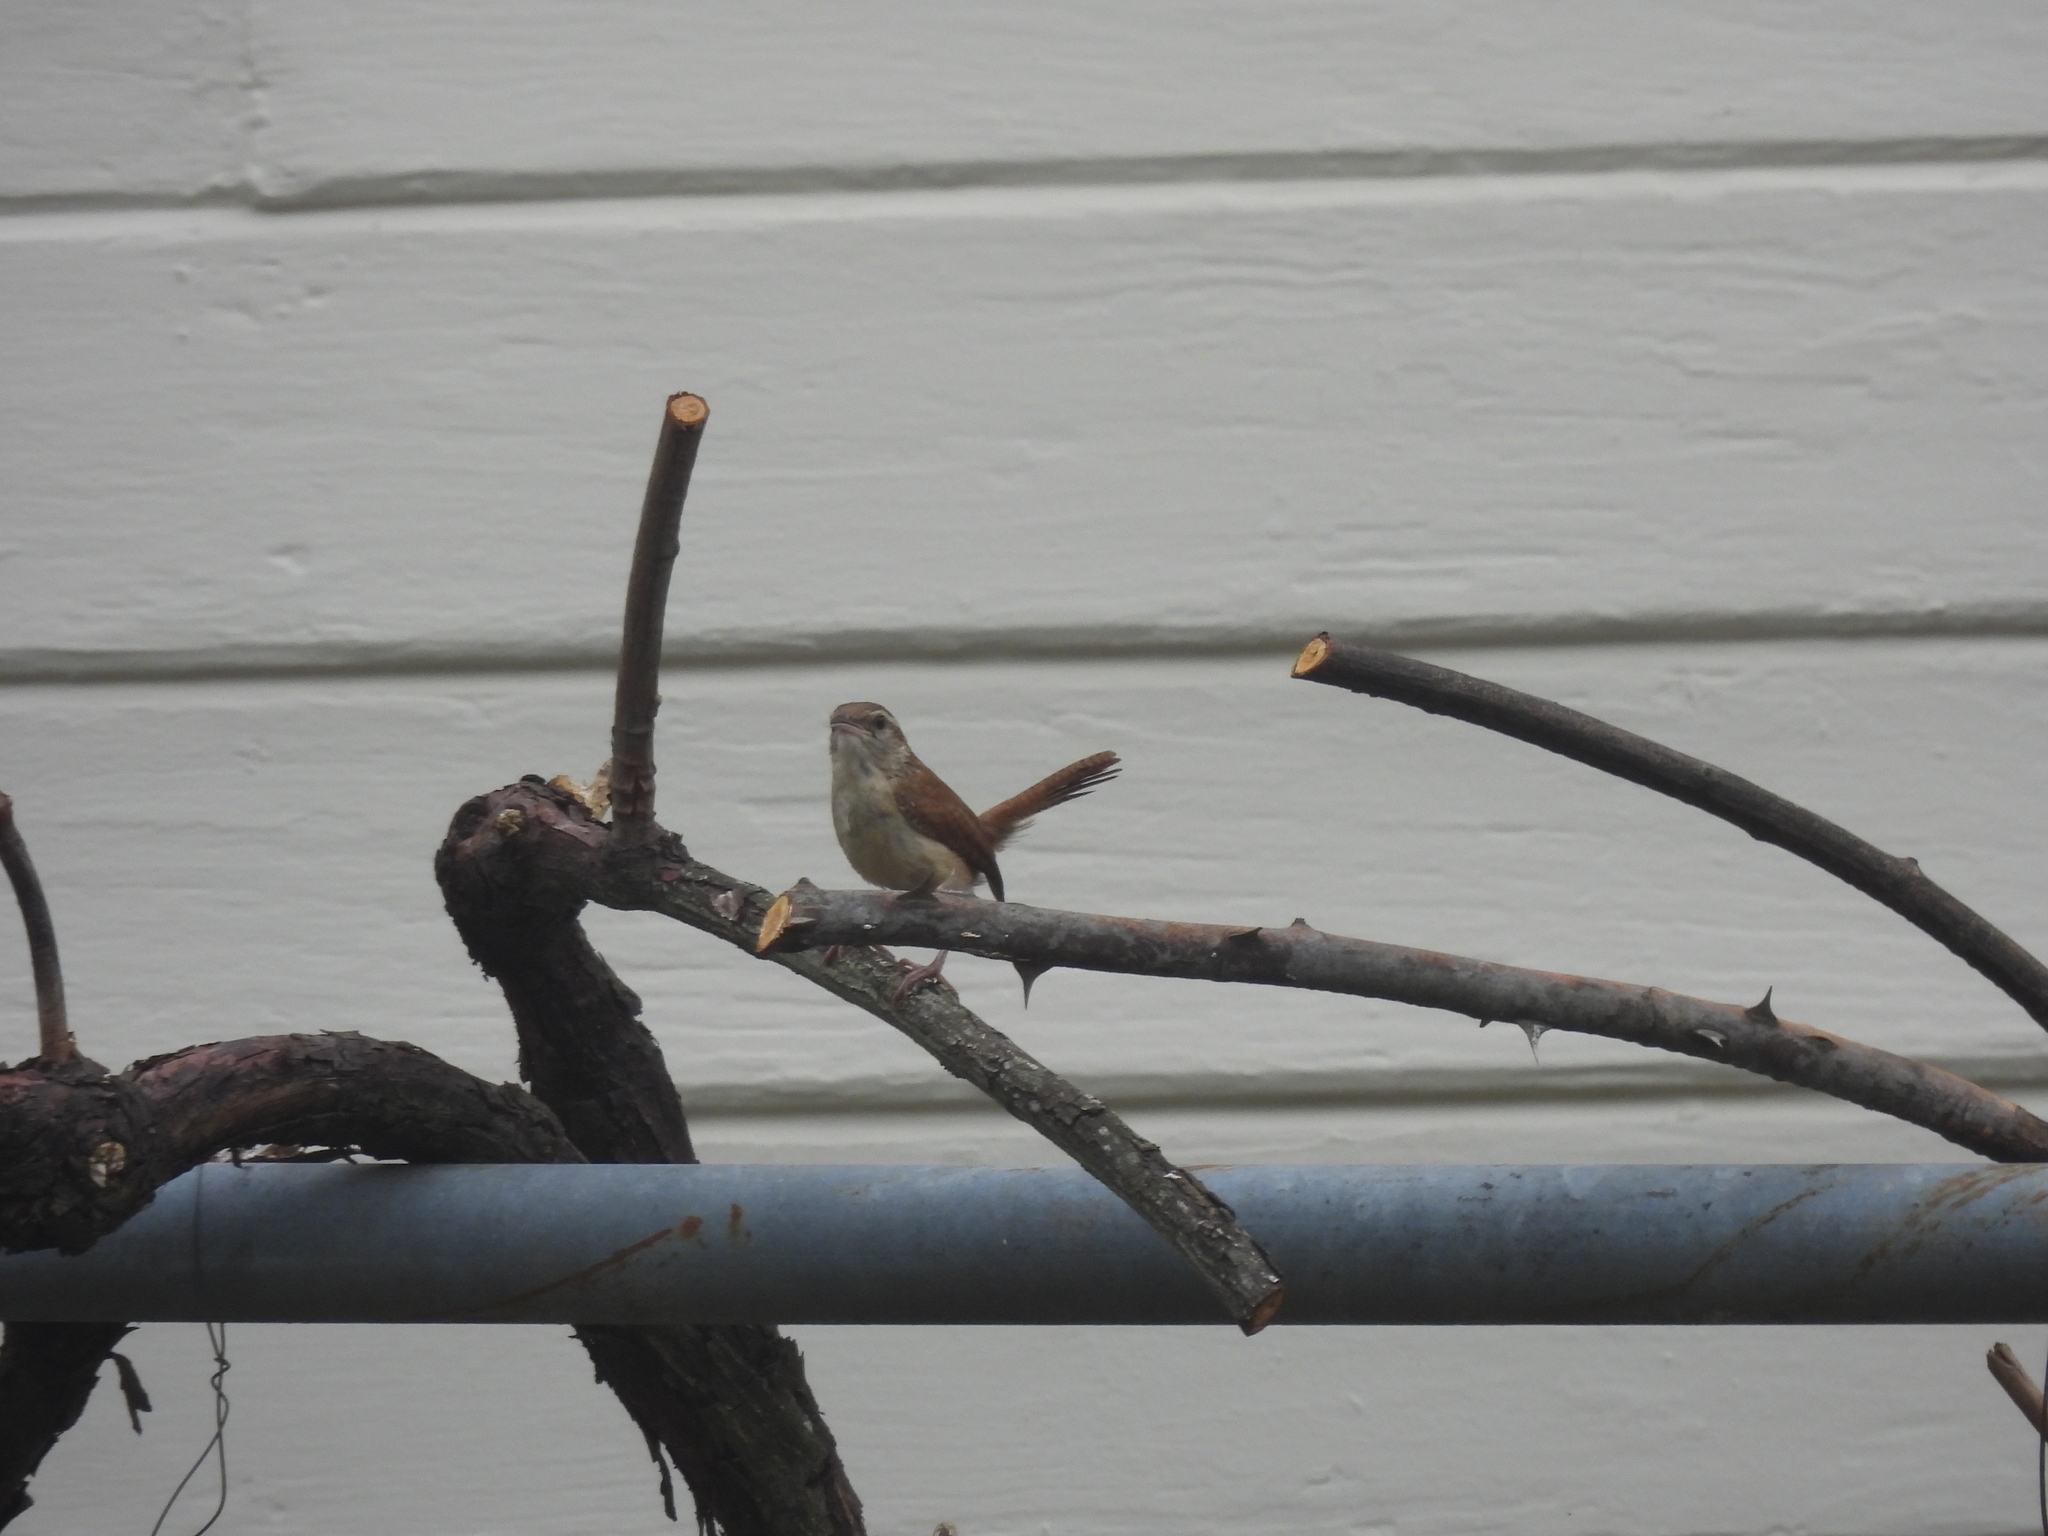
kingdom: Animalia
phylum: Chordata
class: Aves
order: Passeriformes
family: Troglodytidae
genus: Thryothorus
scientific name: Thryothorus ludovicianus
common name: Carolina wren
